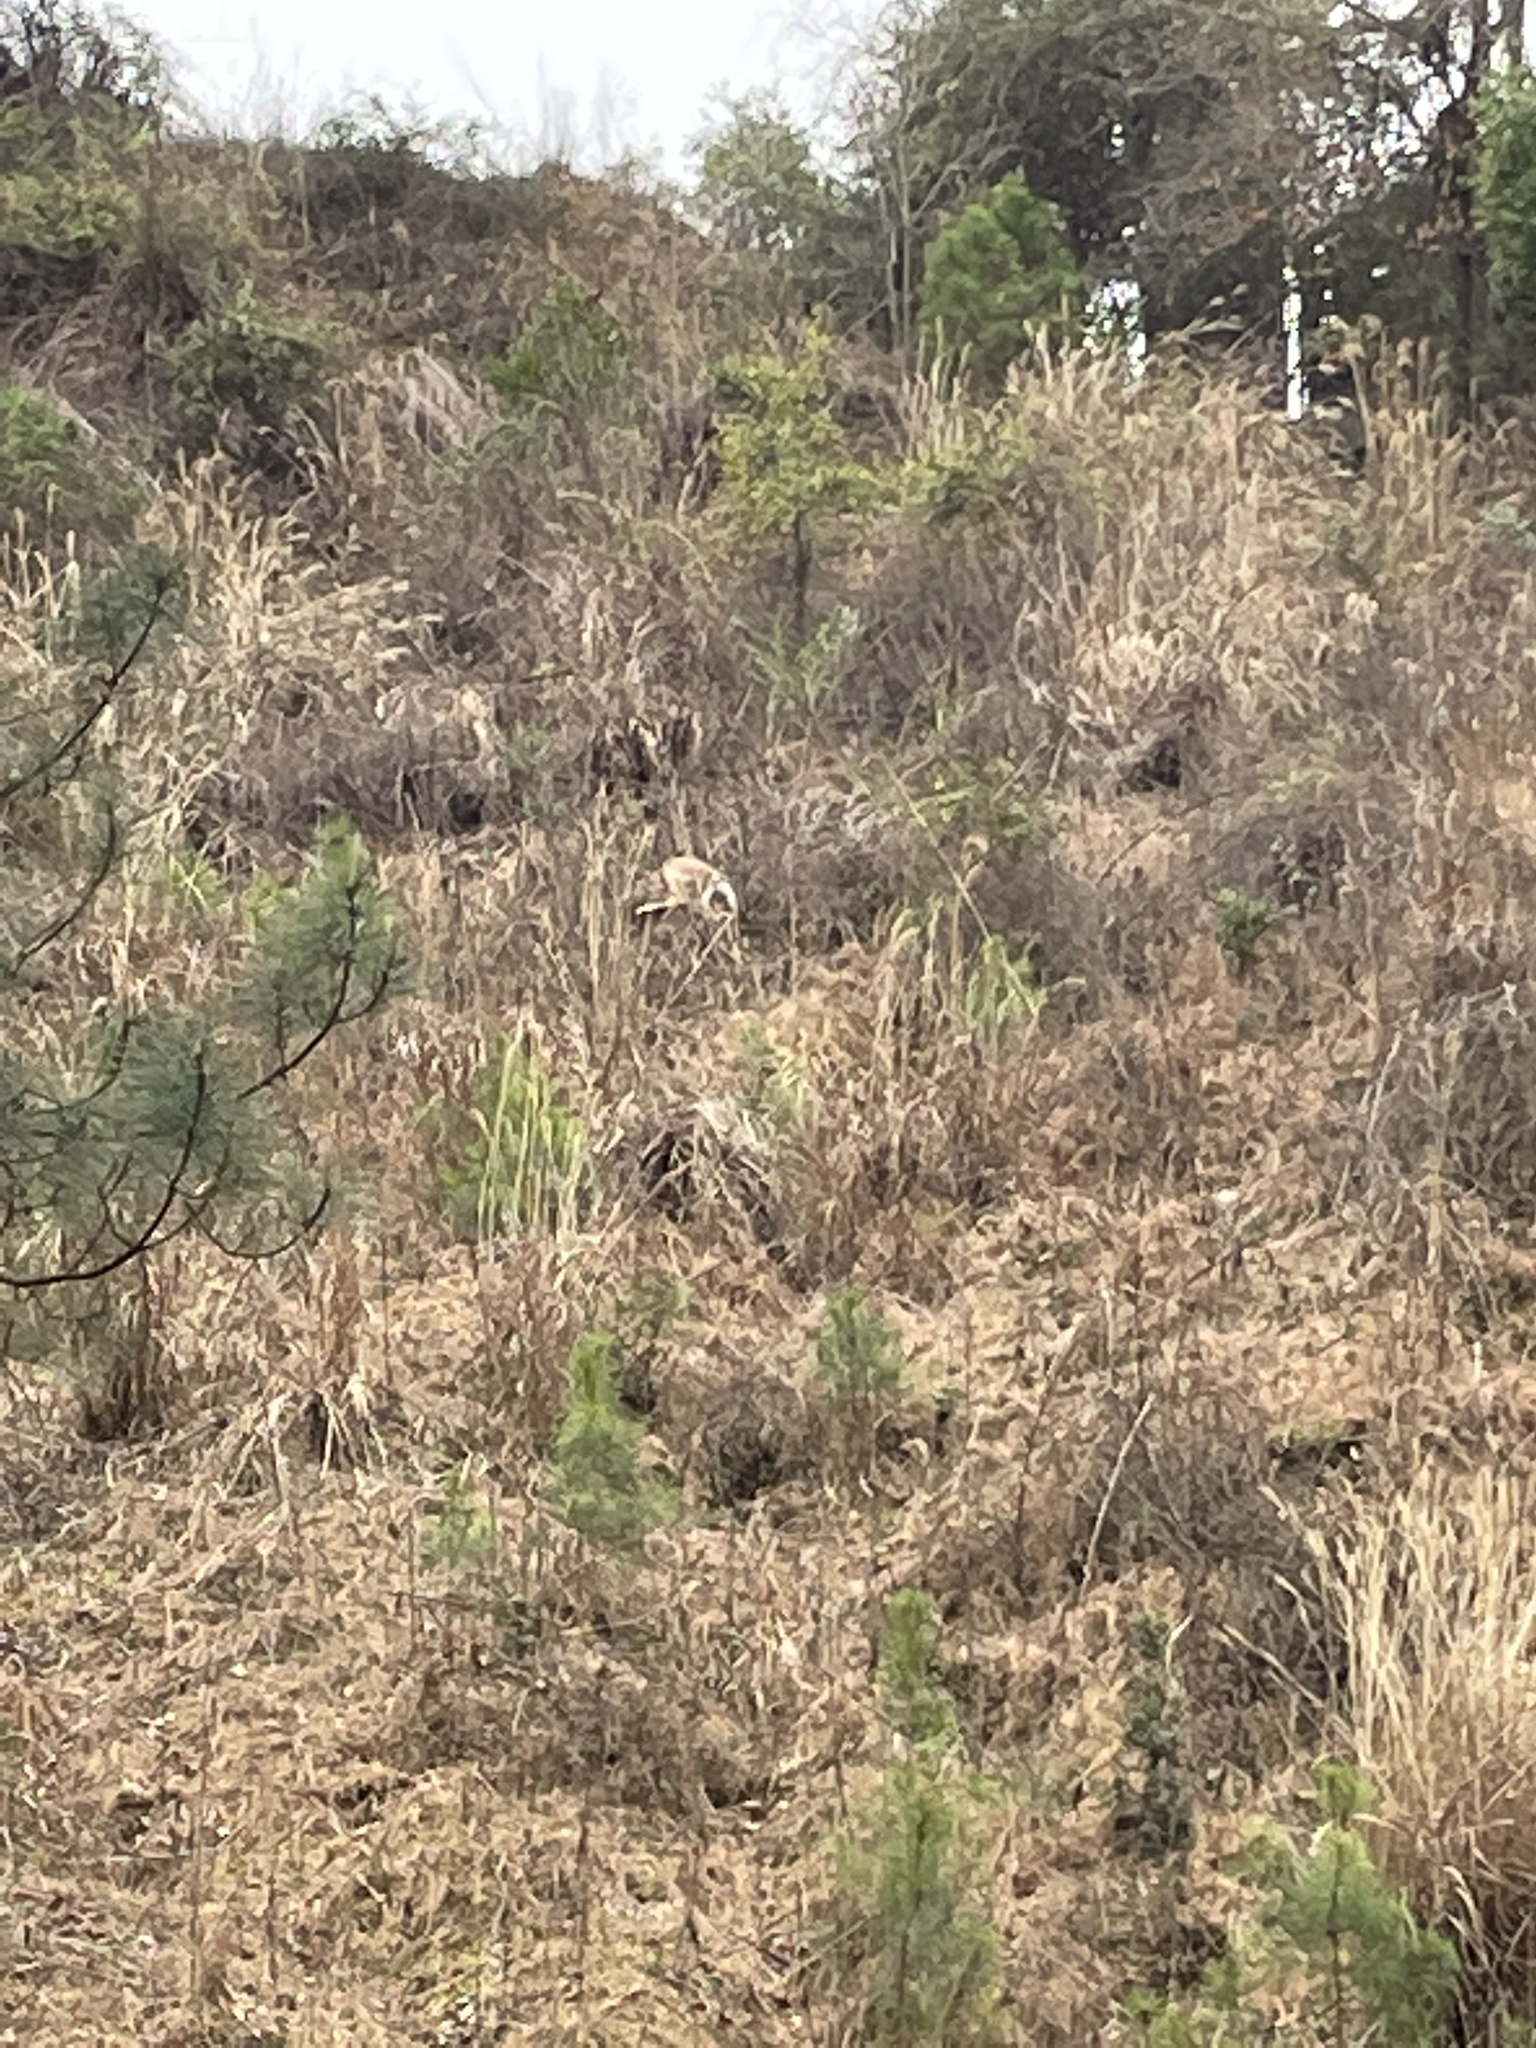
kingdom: Animalia
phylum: Chordata
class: Mammalia
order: Artiodactyla
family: Cervidae
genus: Odocoileus
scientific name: Odocoileus virginianus
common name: White-tailed deer
